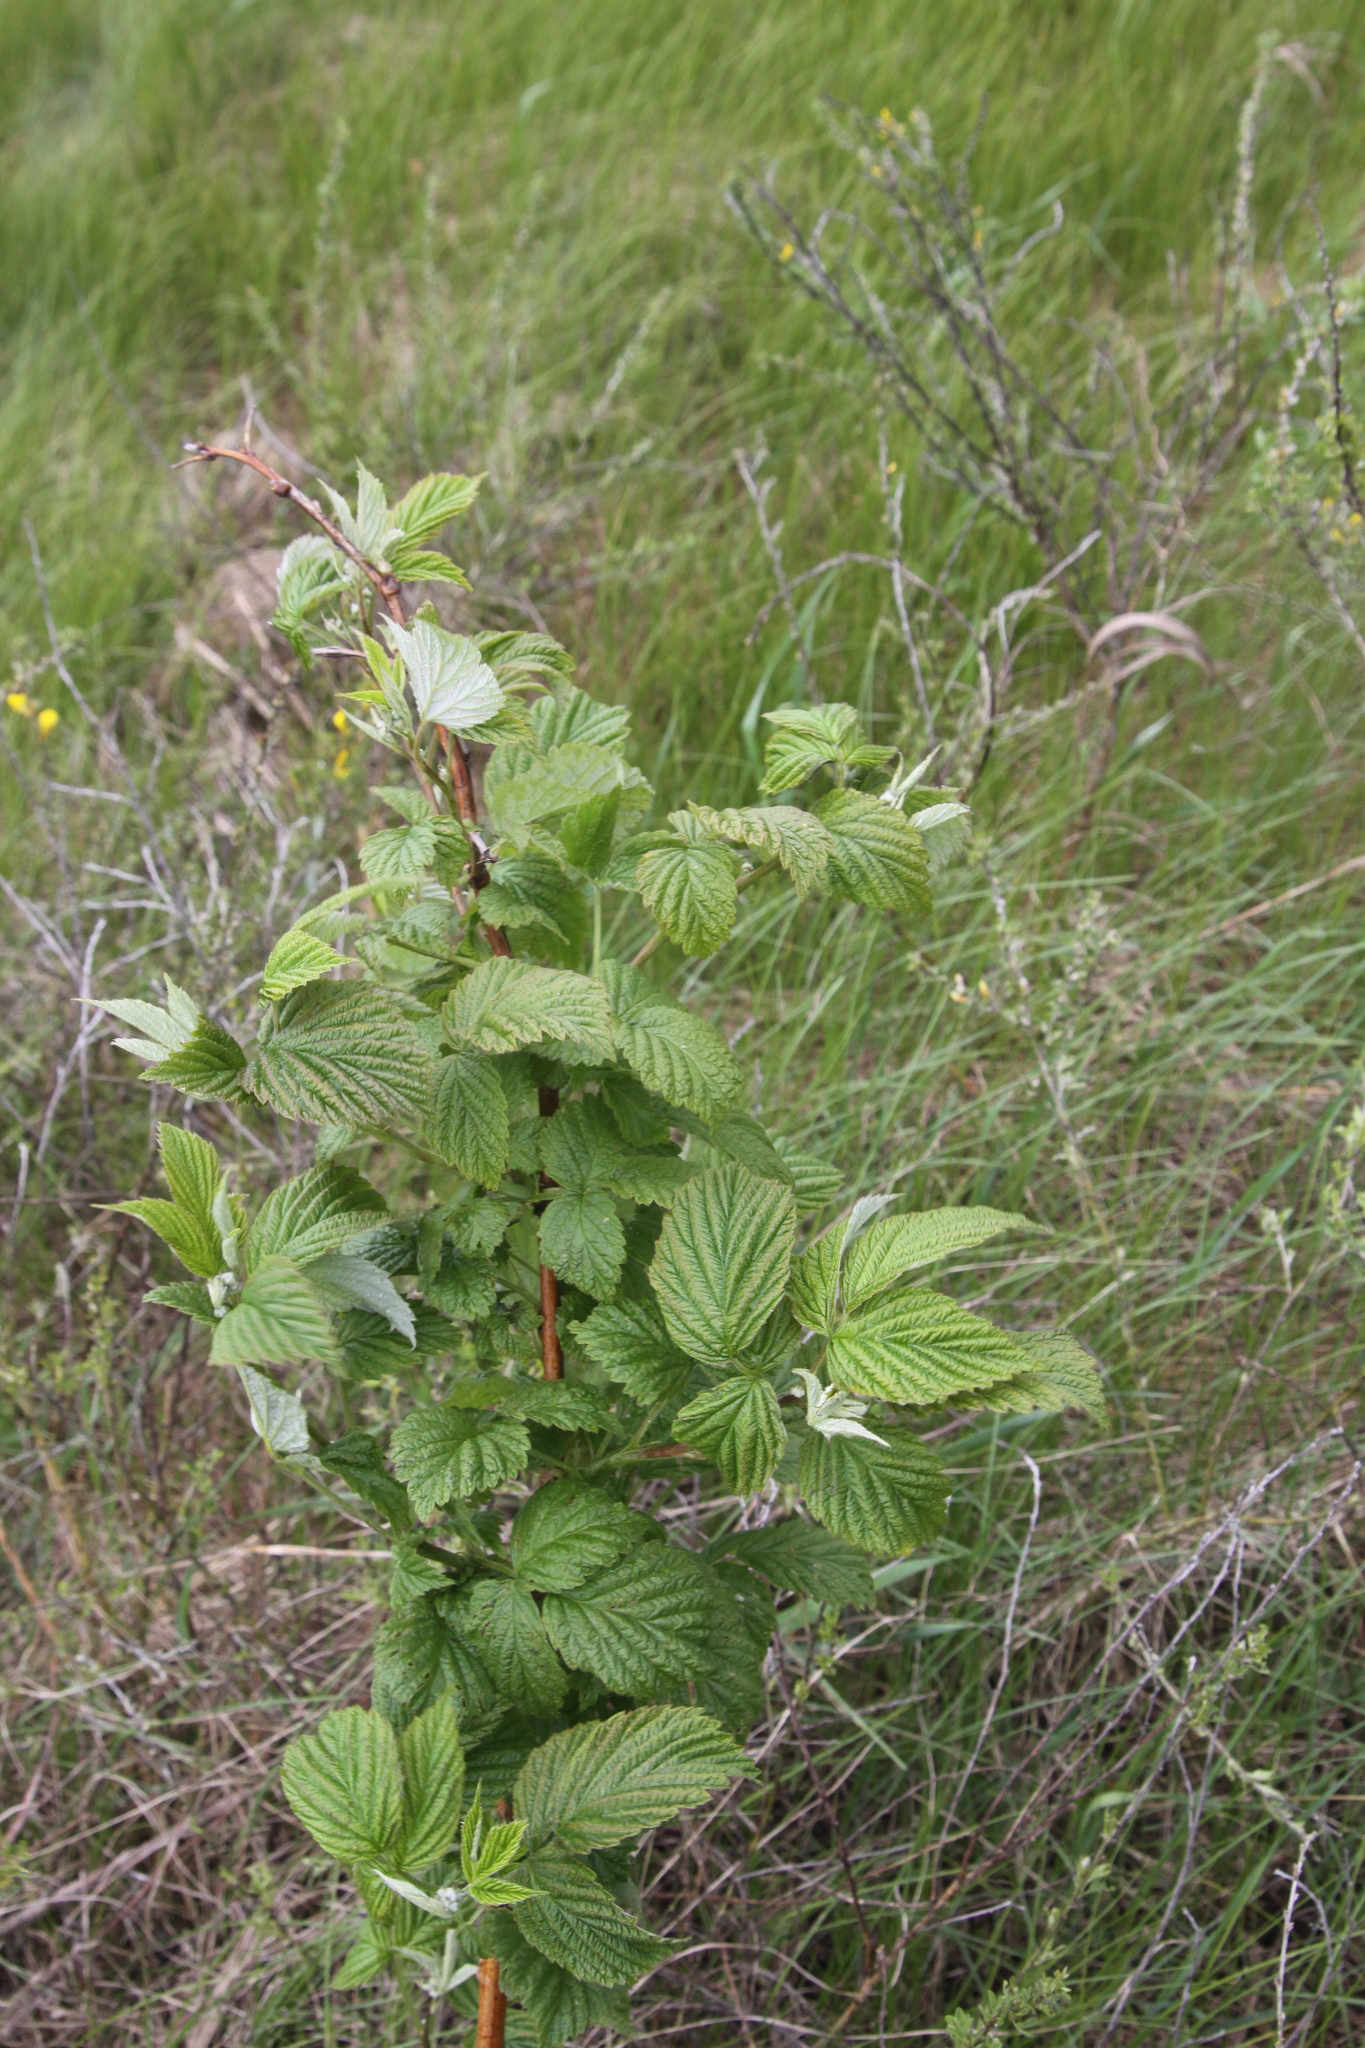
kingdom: Plantae
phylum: Tracheophyta
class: Magnoliopsida
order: Rosales
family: Rosaceae
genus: Rubus
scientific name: Rubus idaeus
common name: Raspberry
